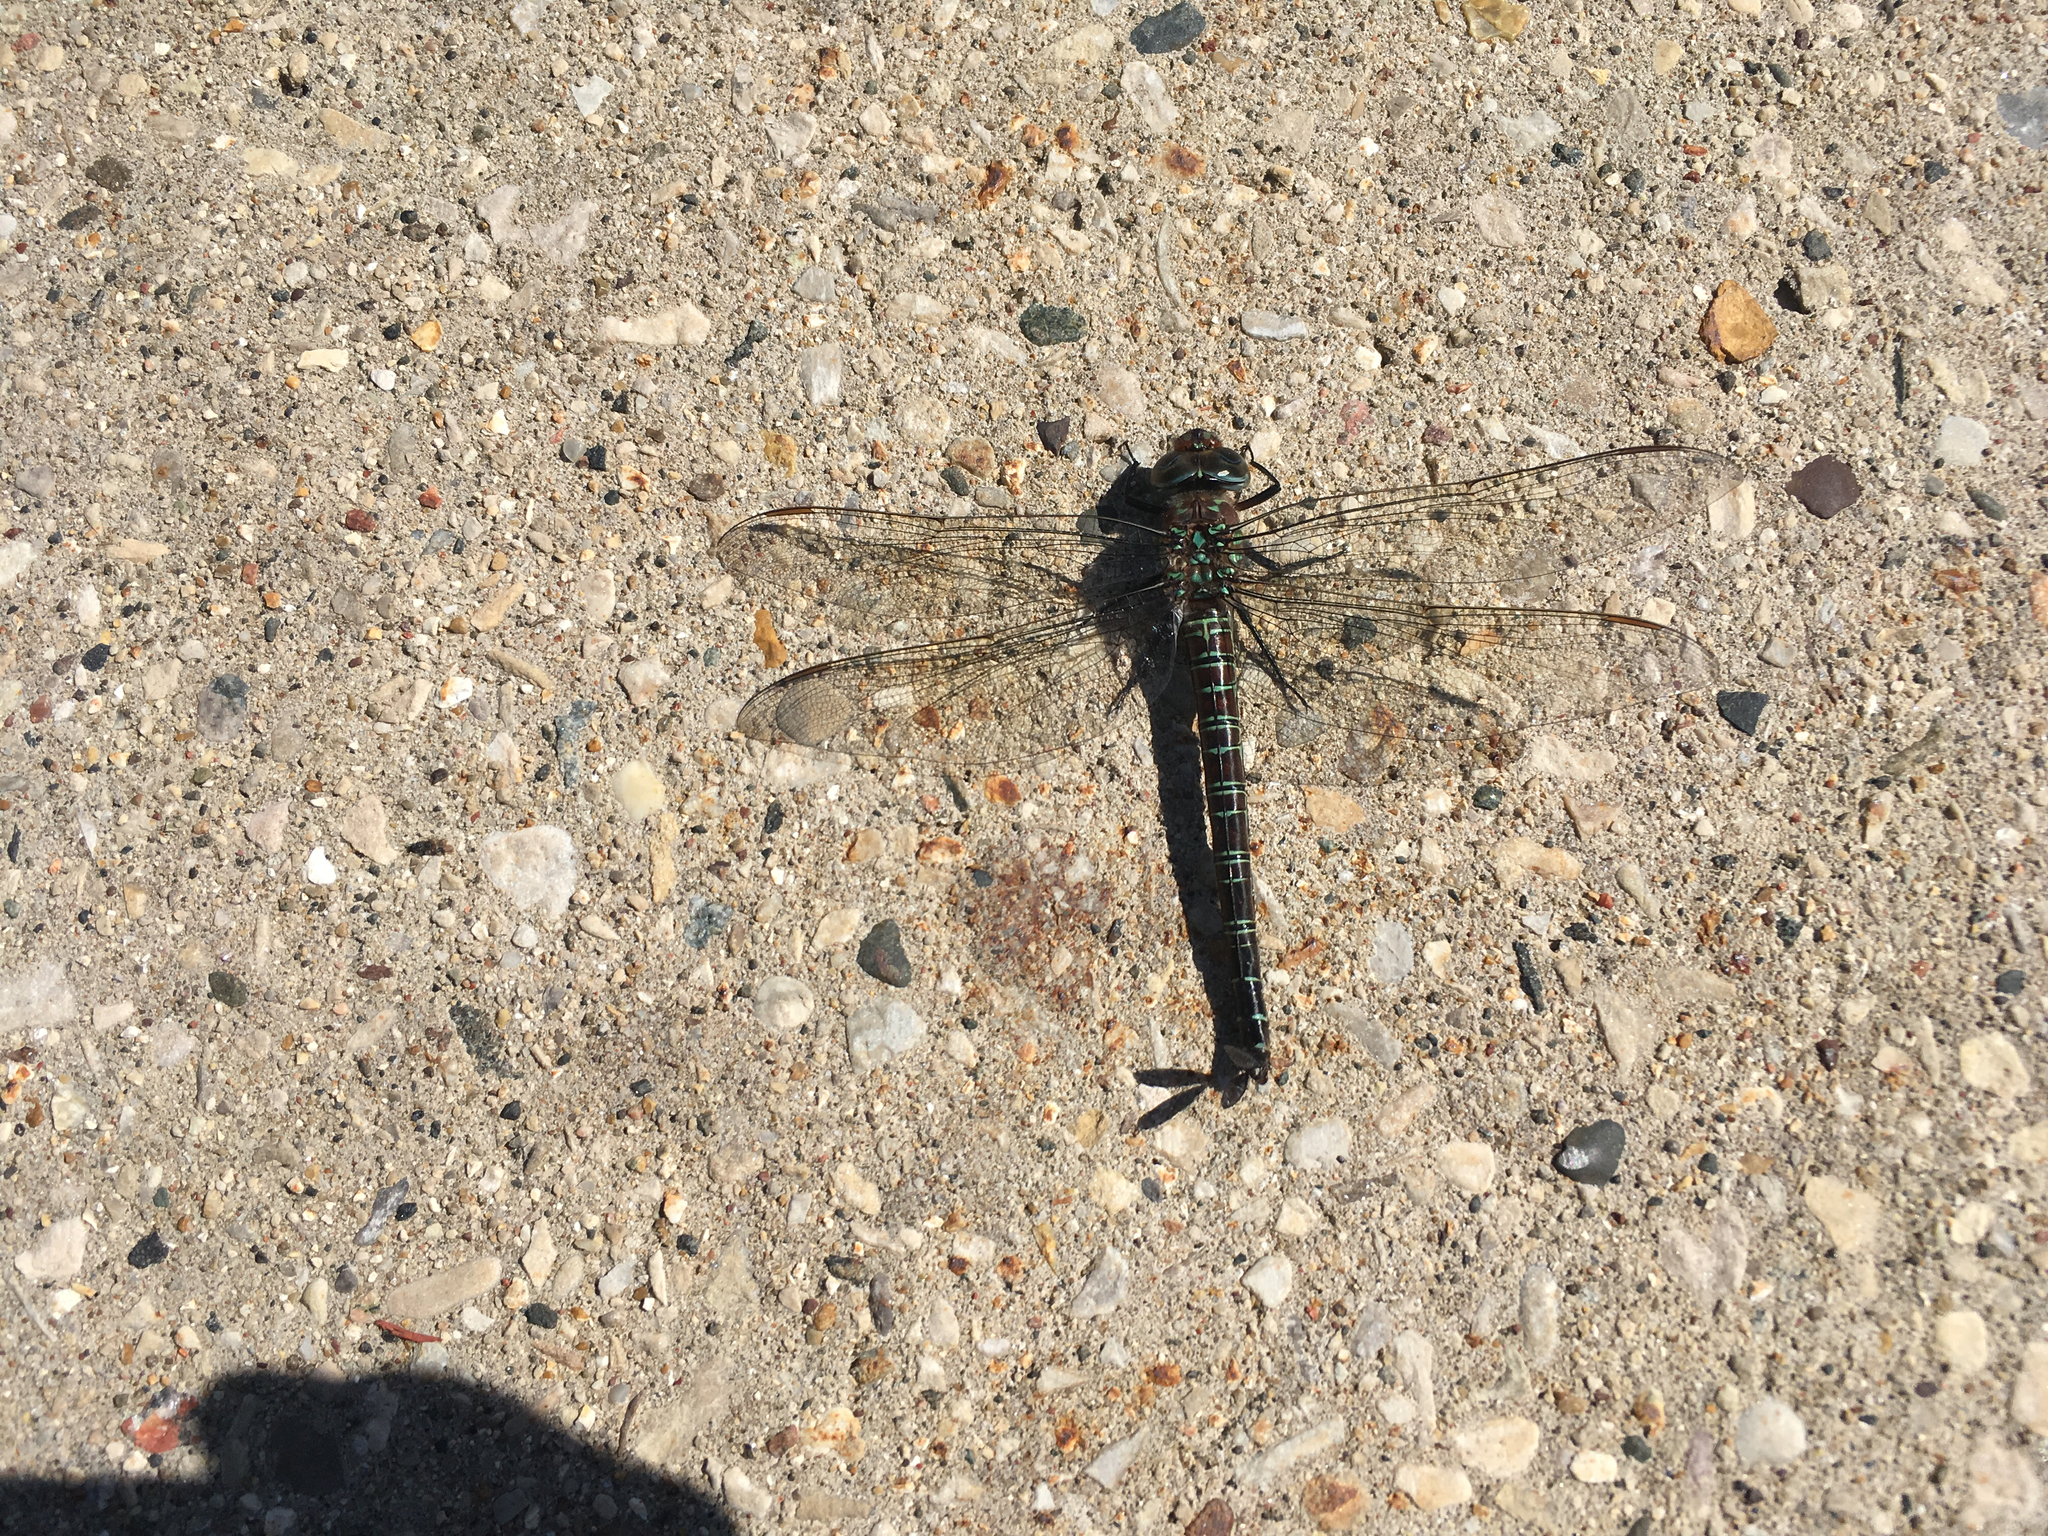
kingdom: Animalia
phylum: Arthropoda
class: Insecta
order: Odonata
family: Aeshnidae
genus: Epiaeschna
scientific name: Epiaeschna heros
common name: Swamp darner
